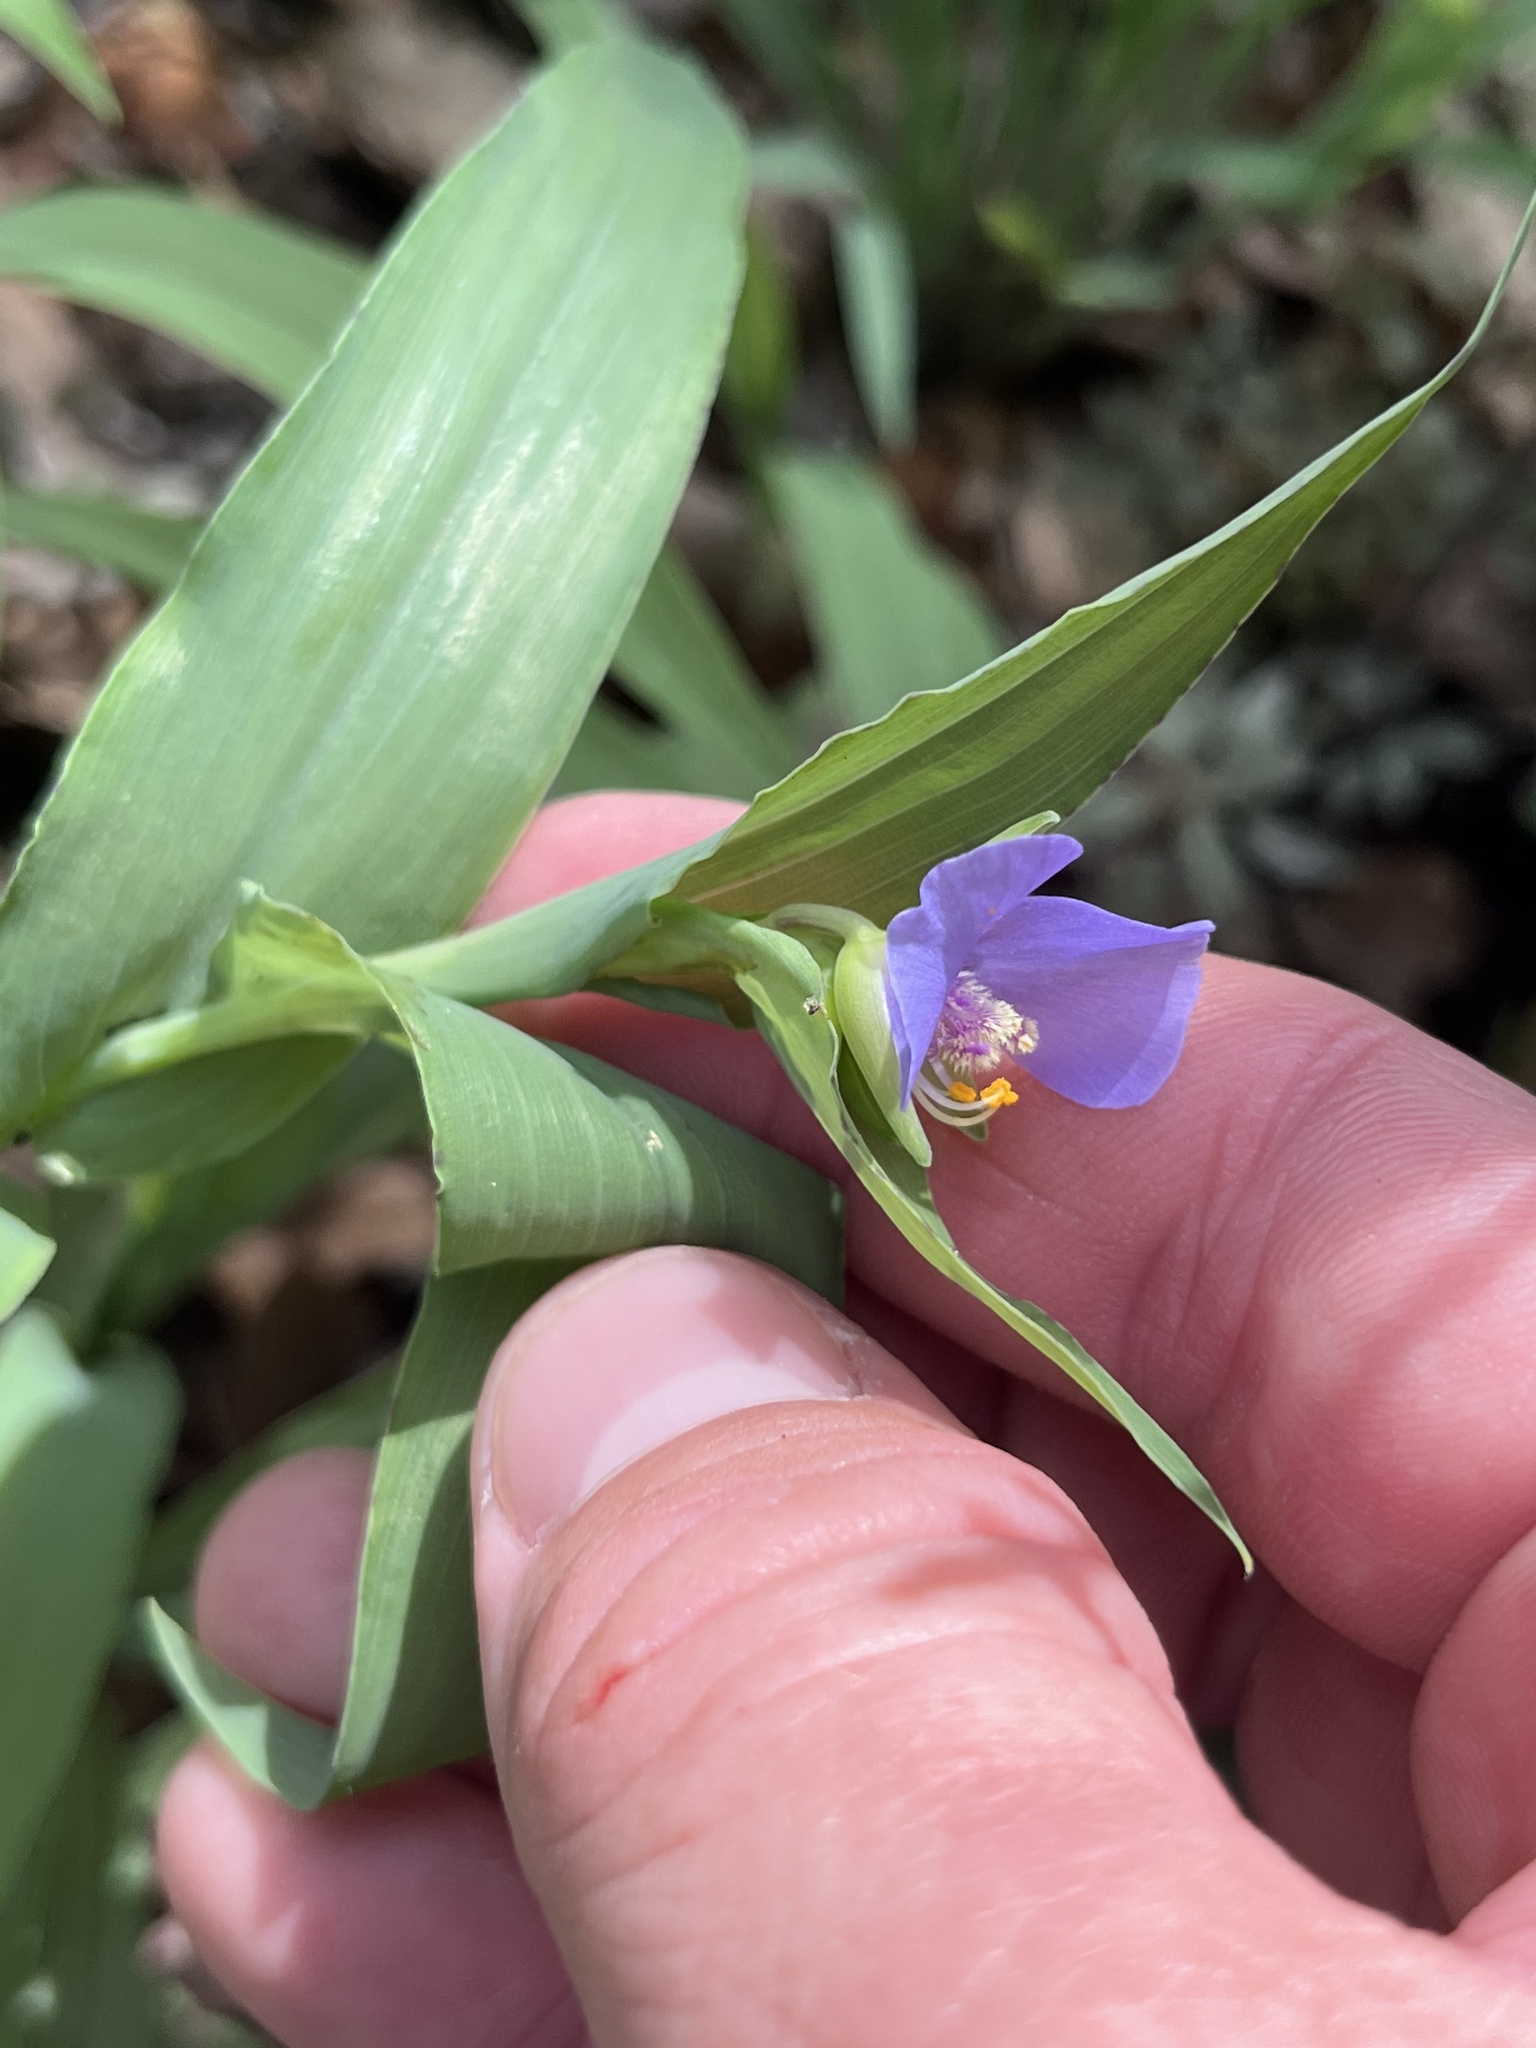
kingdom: Plantae
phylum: Tracheophyta
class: Liliopsida
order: Commelinales
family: Commelinaceae
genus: Tinantia
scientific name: Tinantia anomala
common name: False dayflower
